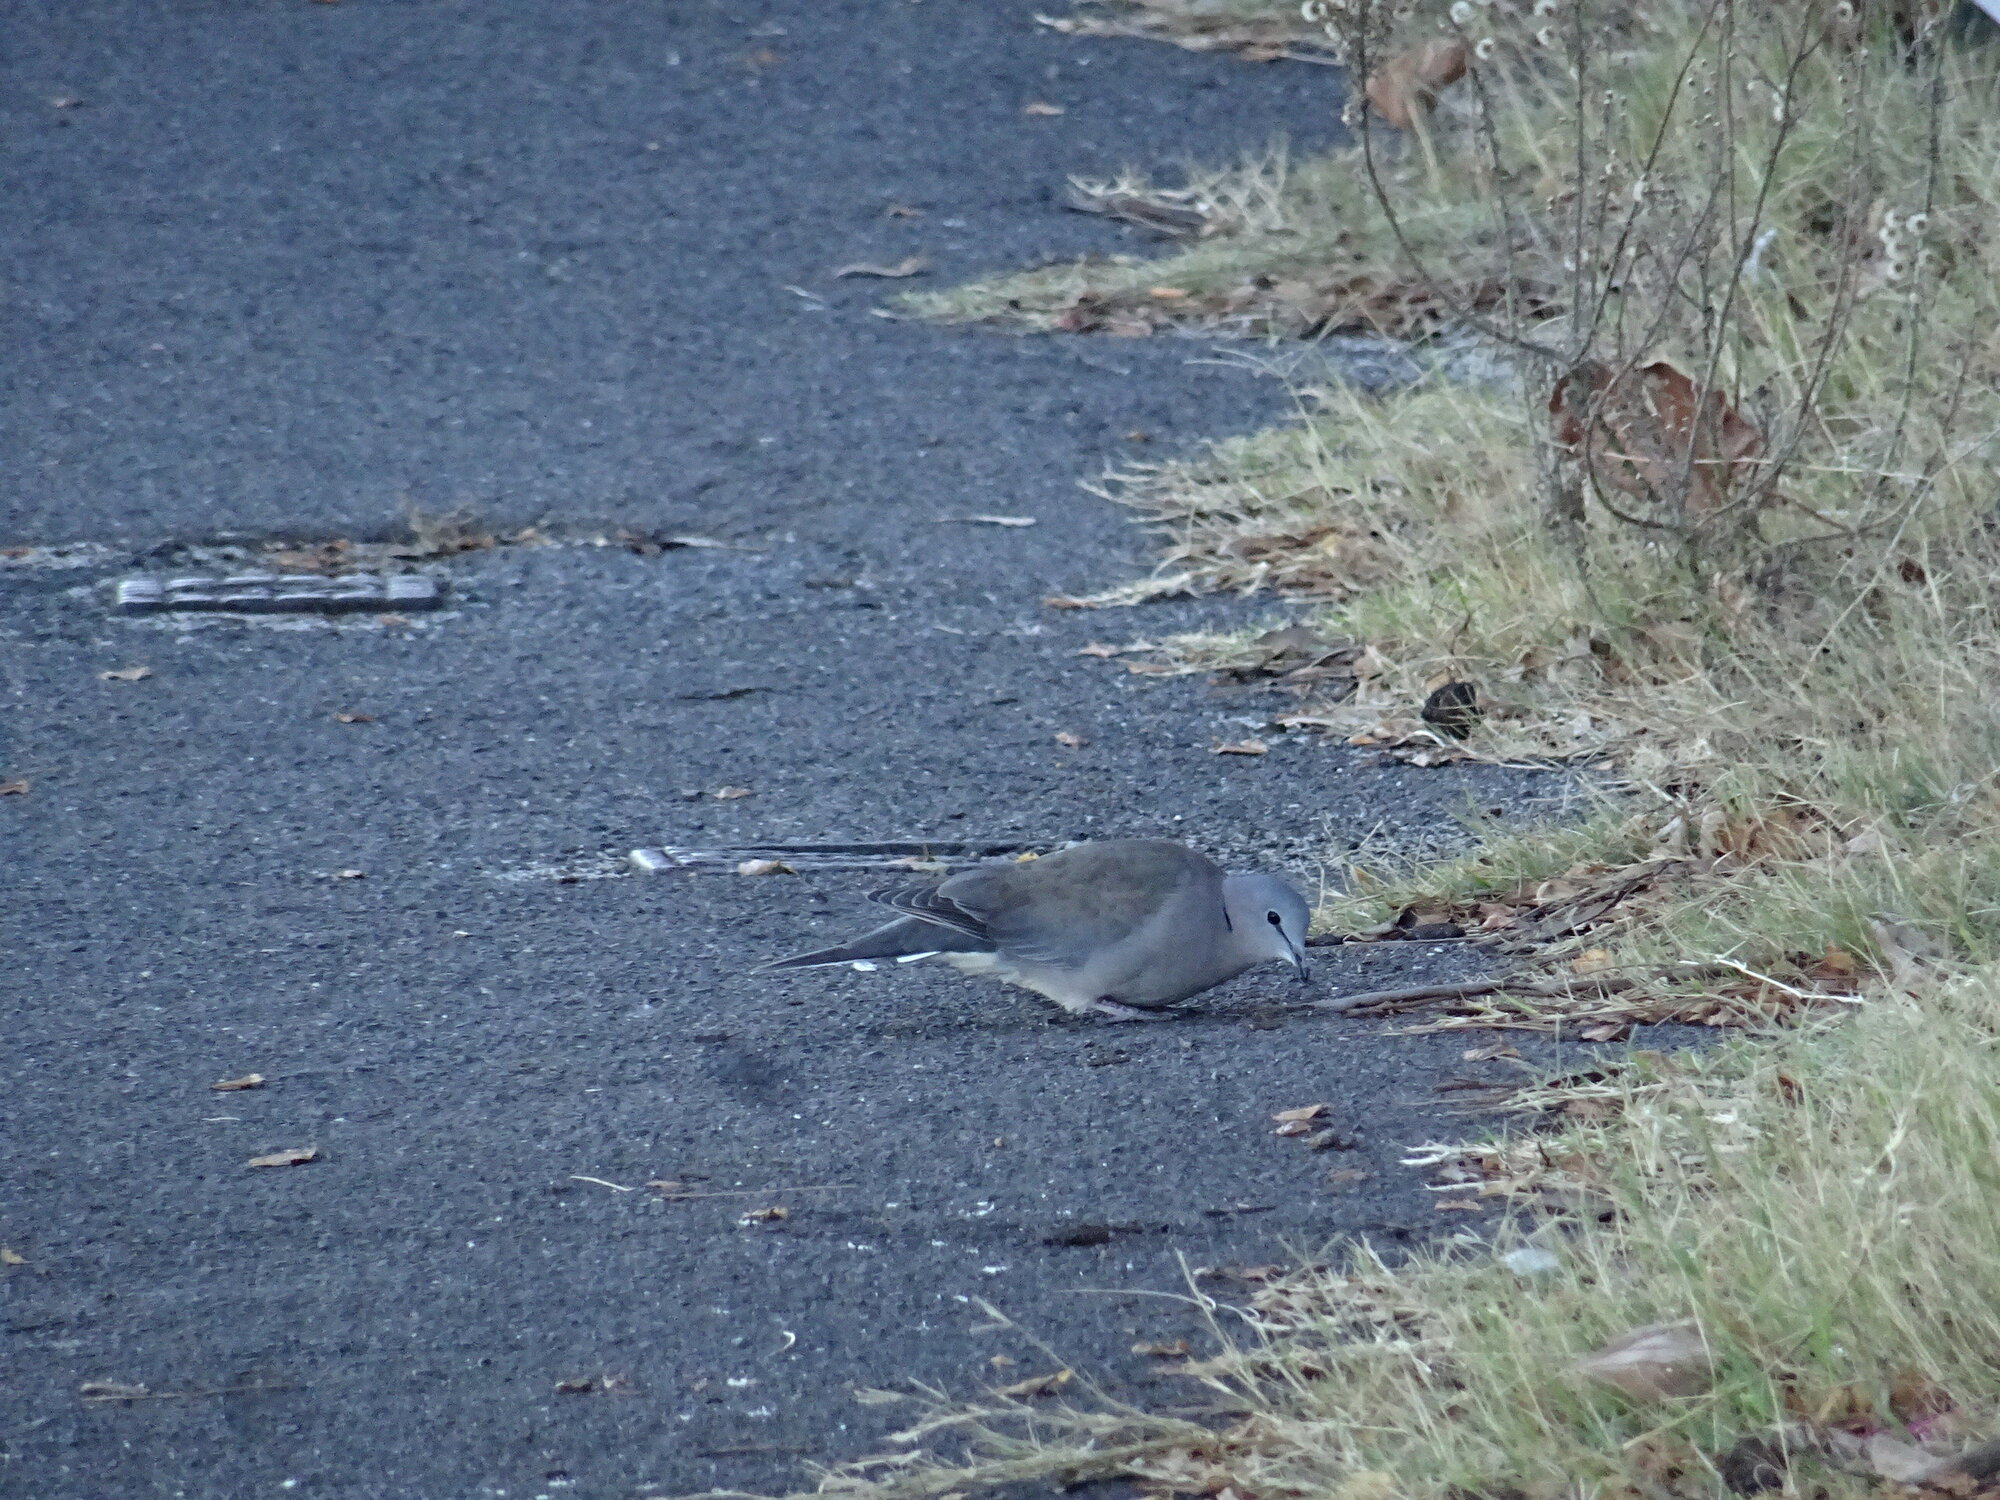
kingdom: Animalia
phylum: Chordata
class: Aves
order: Columbiformes
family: Columbidae
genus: Streptopelia
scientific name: Streptopelia capicola
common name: Ring-necked dove
